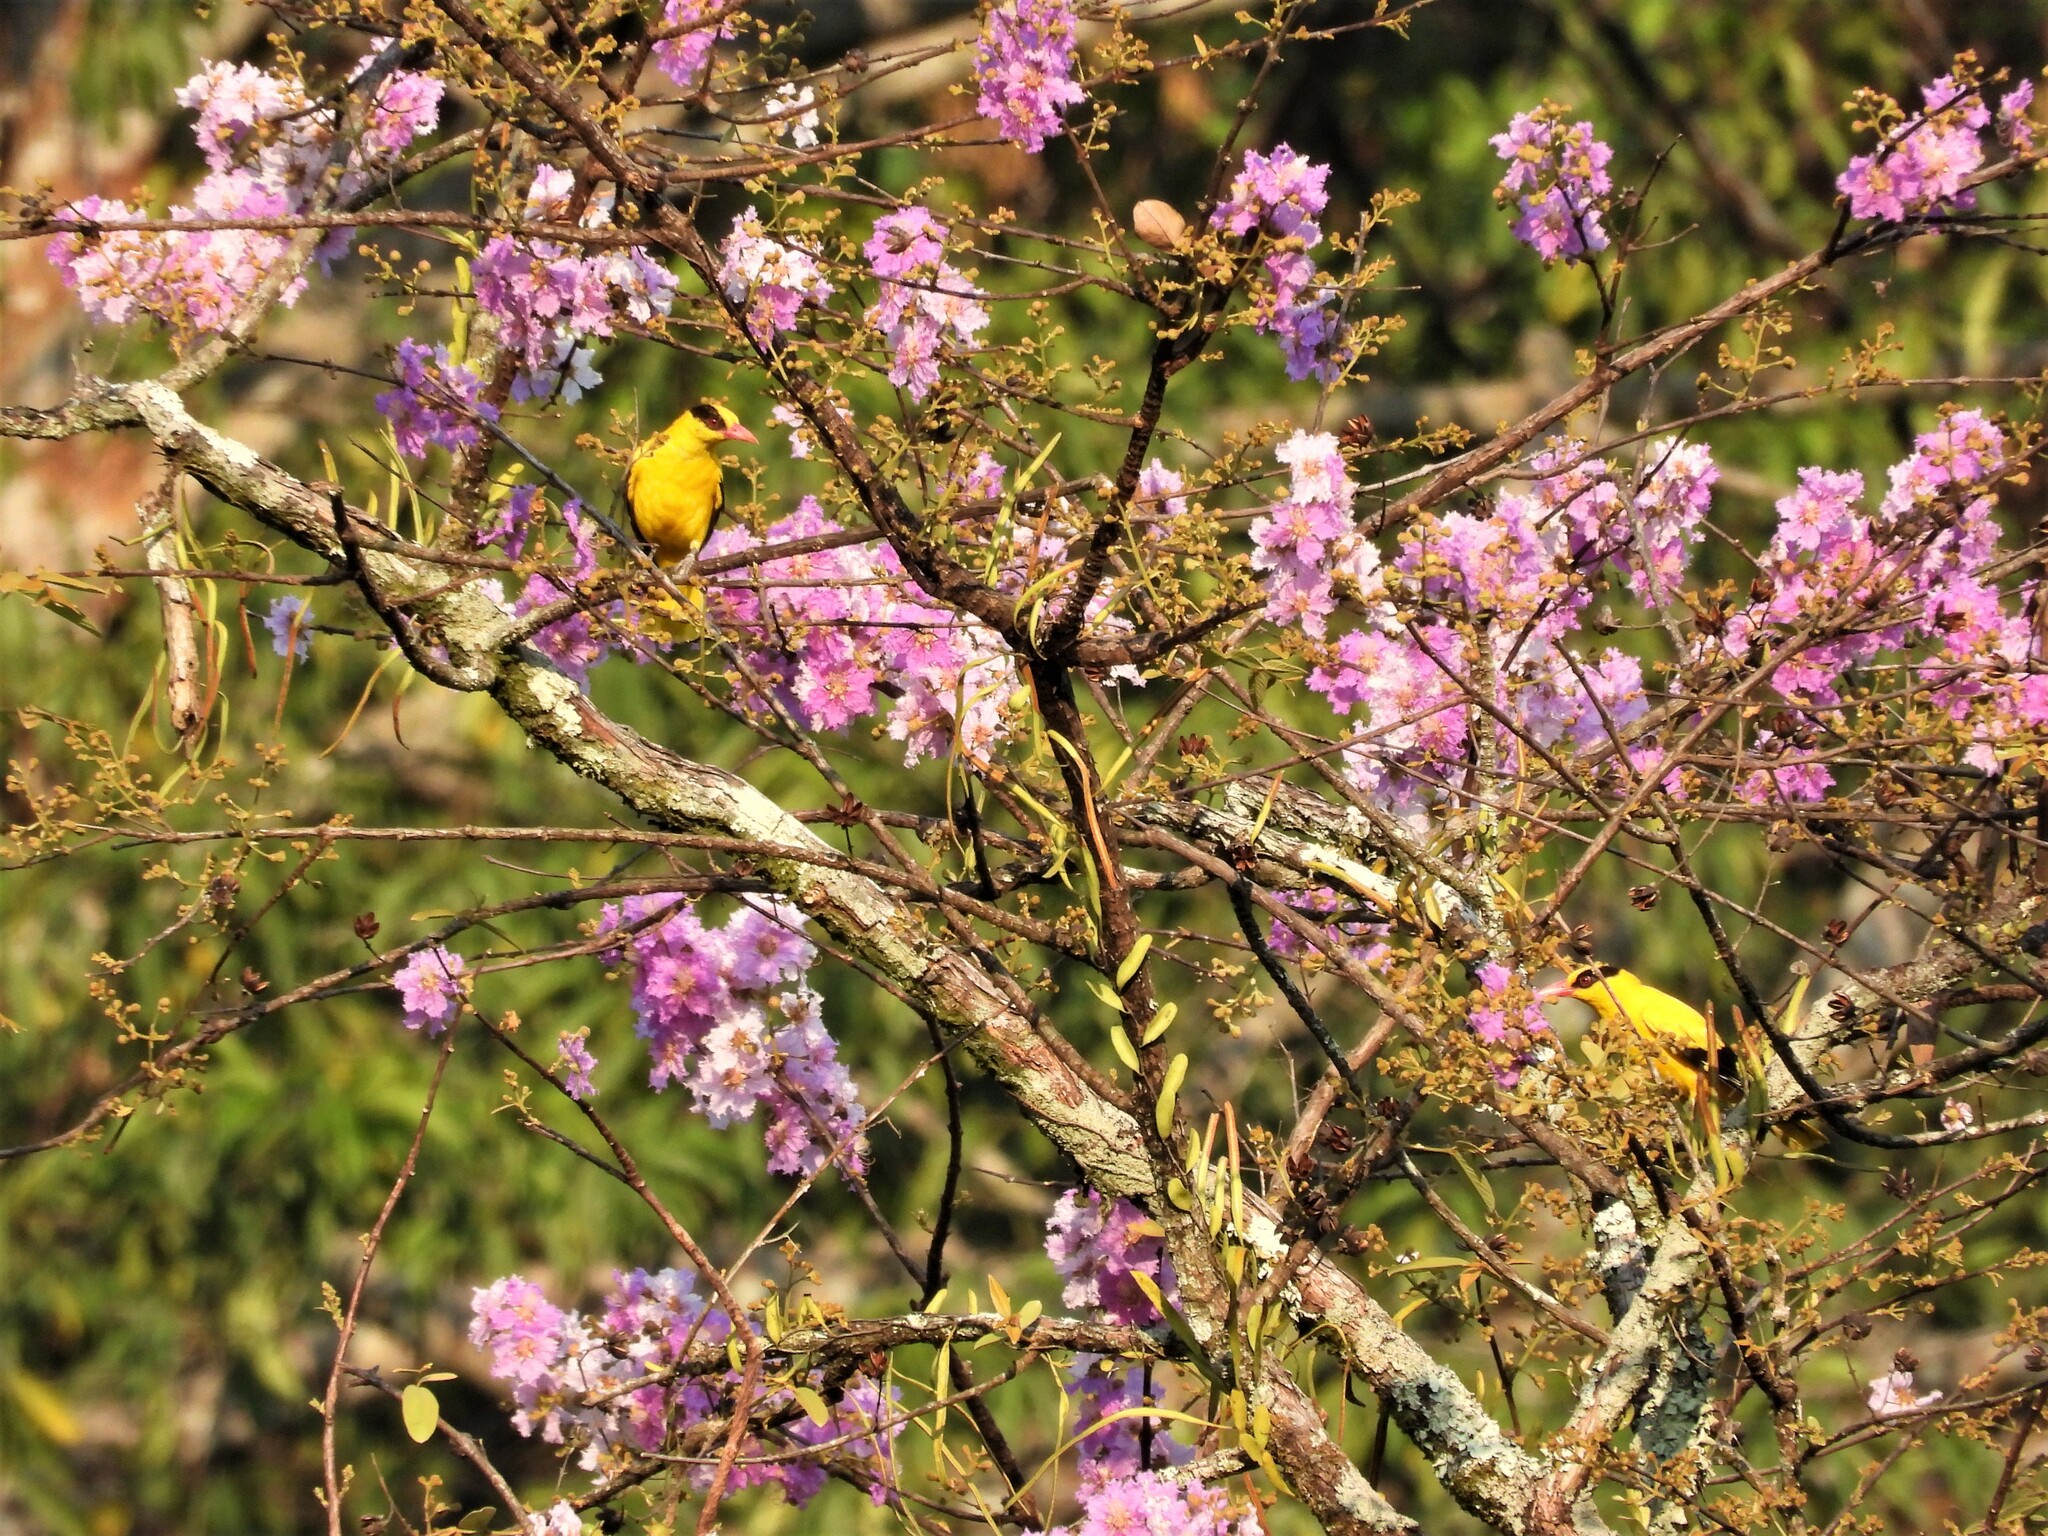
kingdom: Animalia
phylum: Chordata
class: Aves
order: Passeriformes
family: Oriolidae
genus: Oriolus
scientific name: Oriolus chinensis
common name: Black-naped oriole
